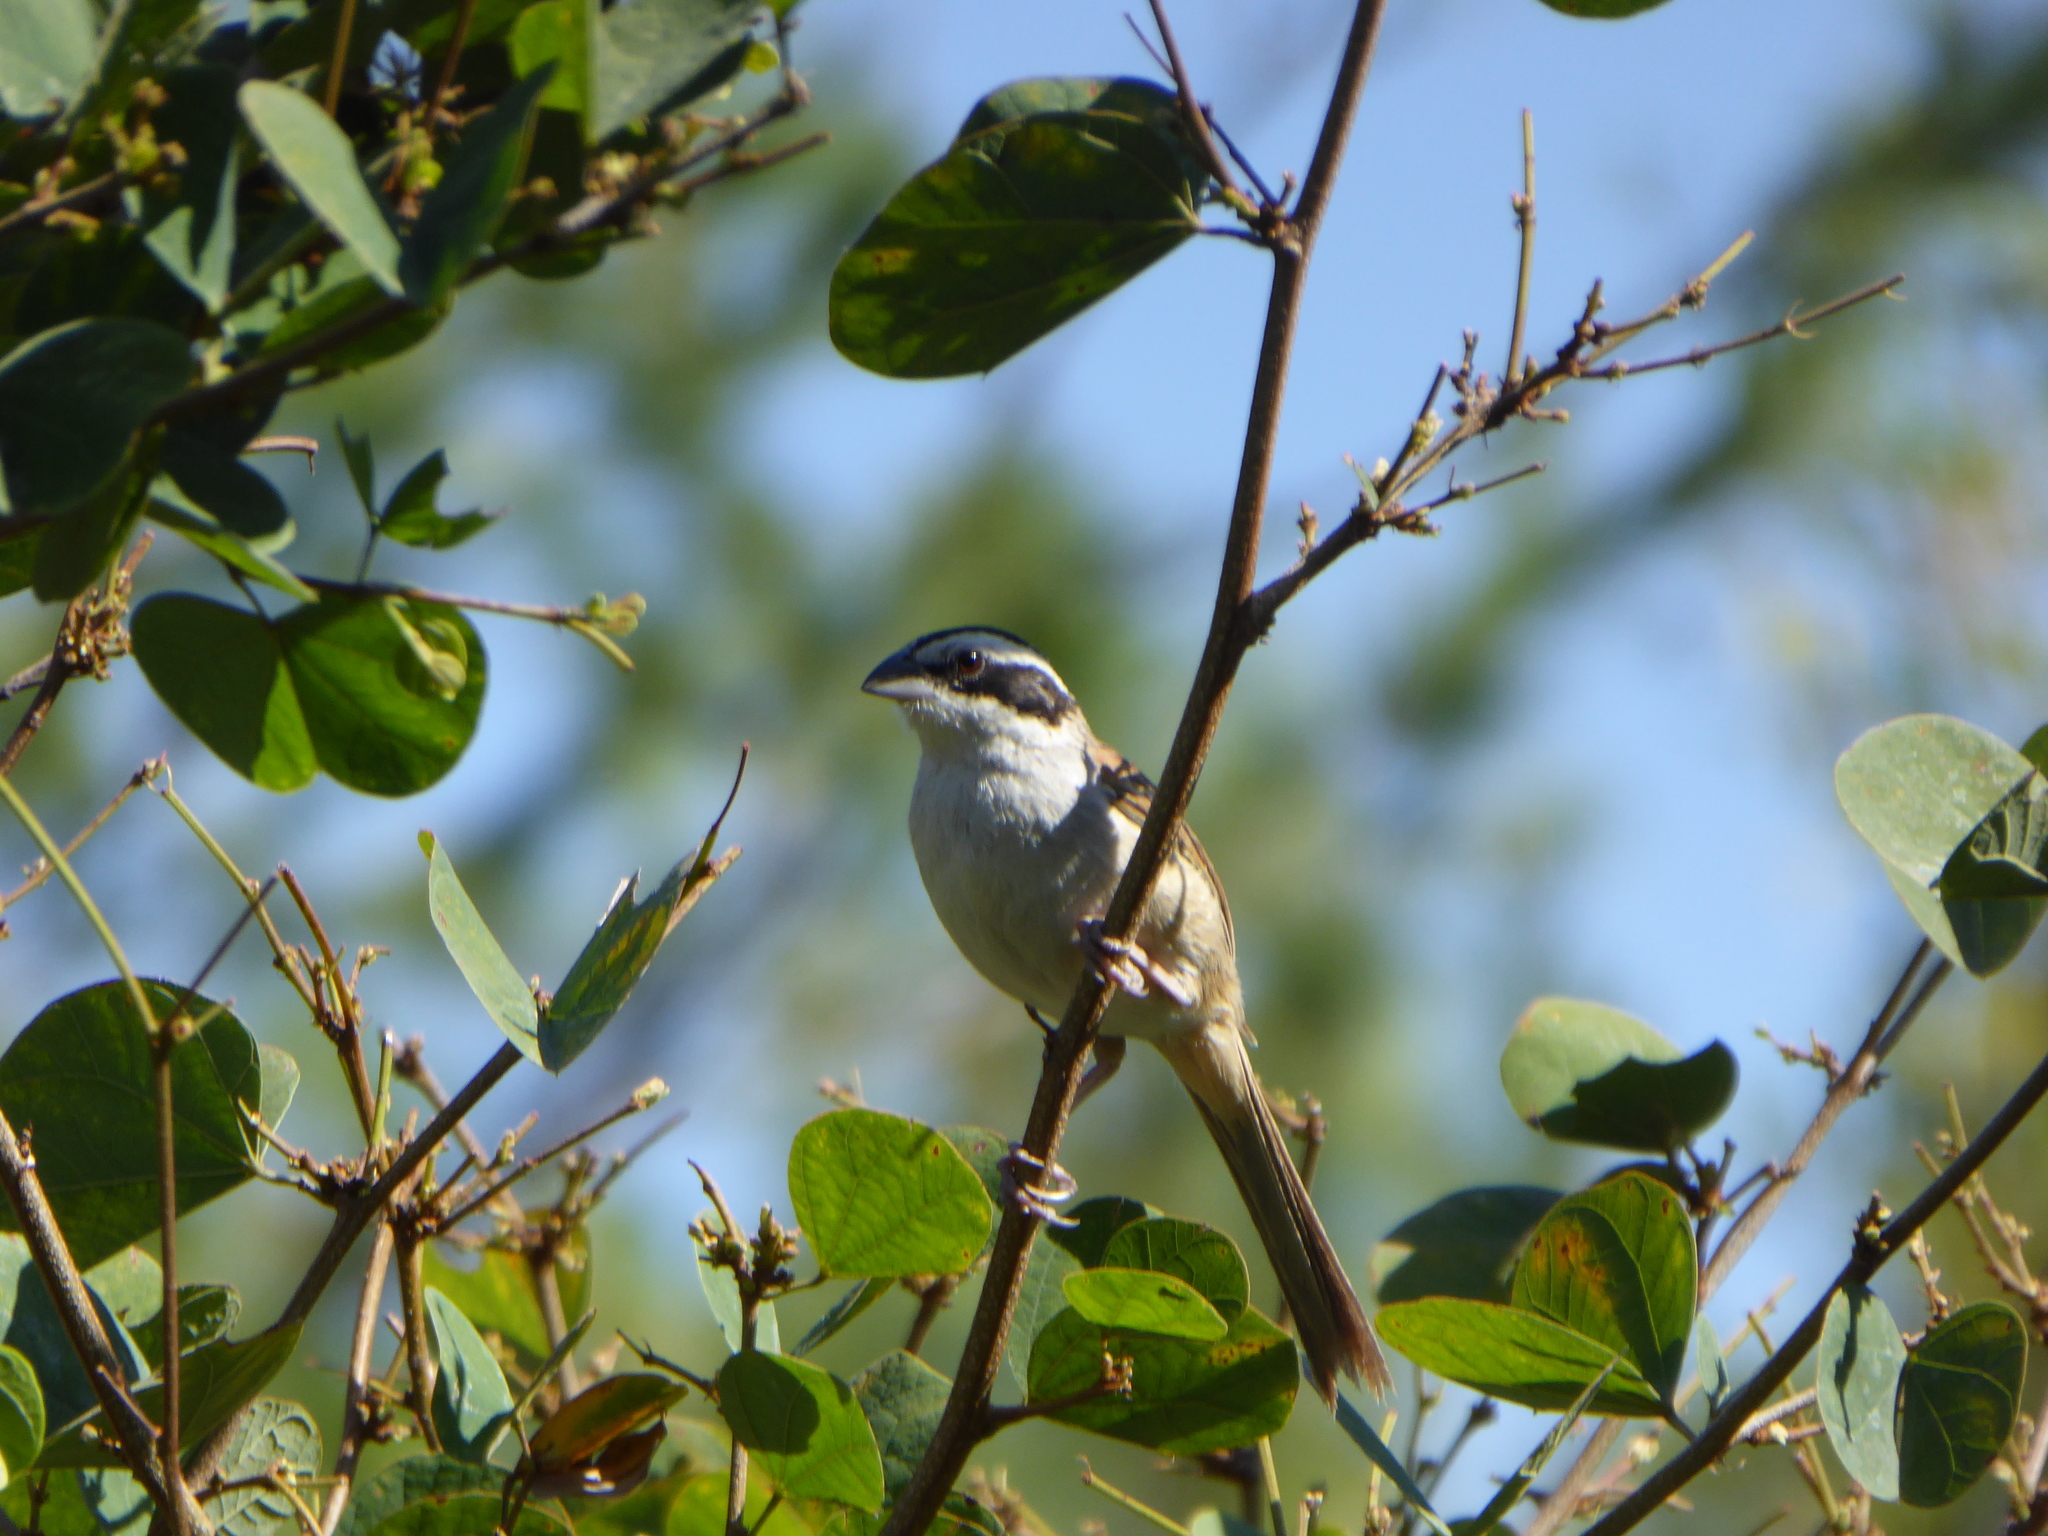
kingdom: Animalia
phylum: Chordata
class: Aves
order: Passeriformes
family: Passerellidae
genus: Peucaea
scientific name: Peucaea ruficauda
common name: Stripe-headed sparrow
